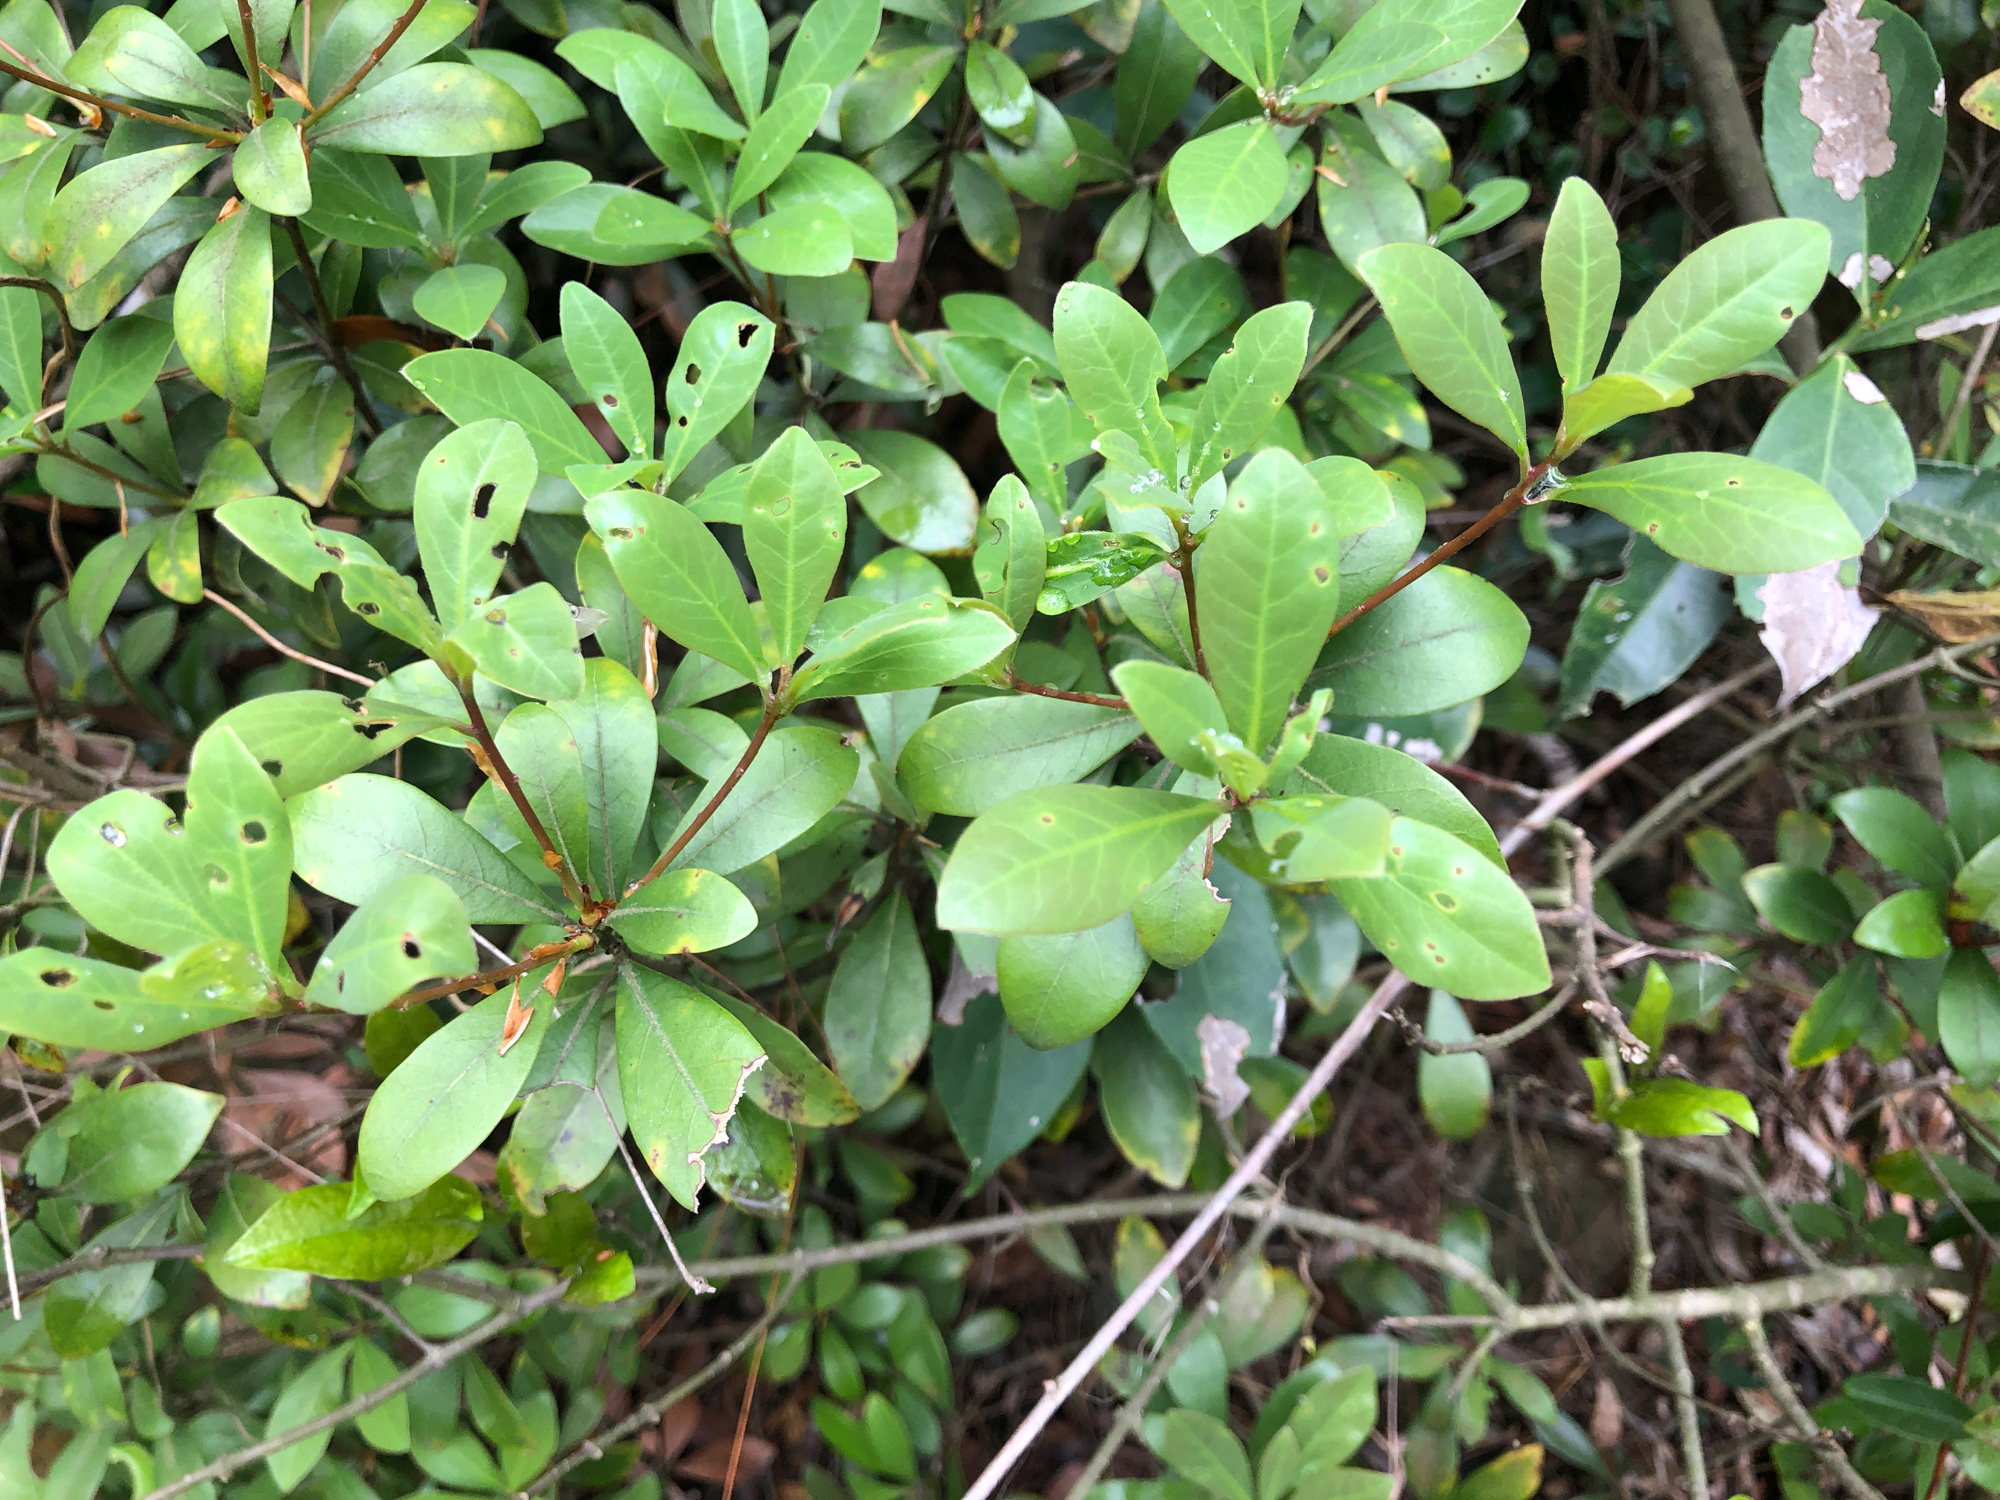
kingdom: Plantae
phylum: Tracheophyta
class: Magnoliopsida
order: Laurales
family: Lauraceae
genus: Litsea
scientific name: Litsea rotundifolia
